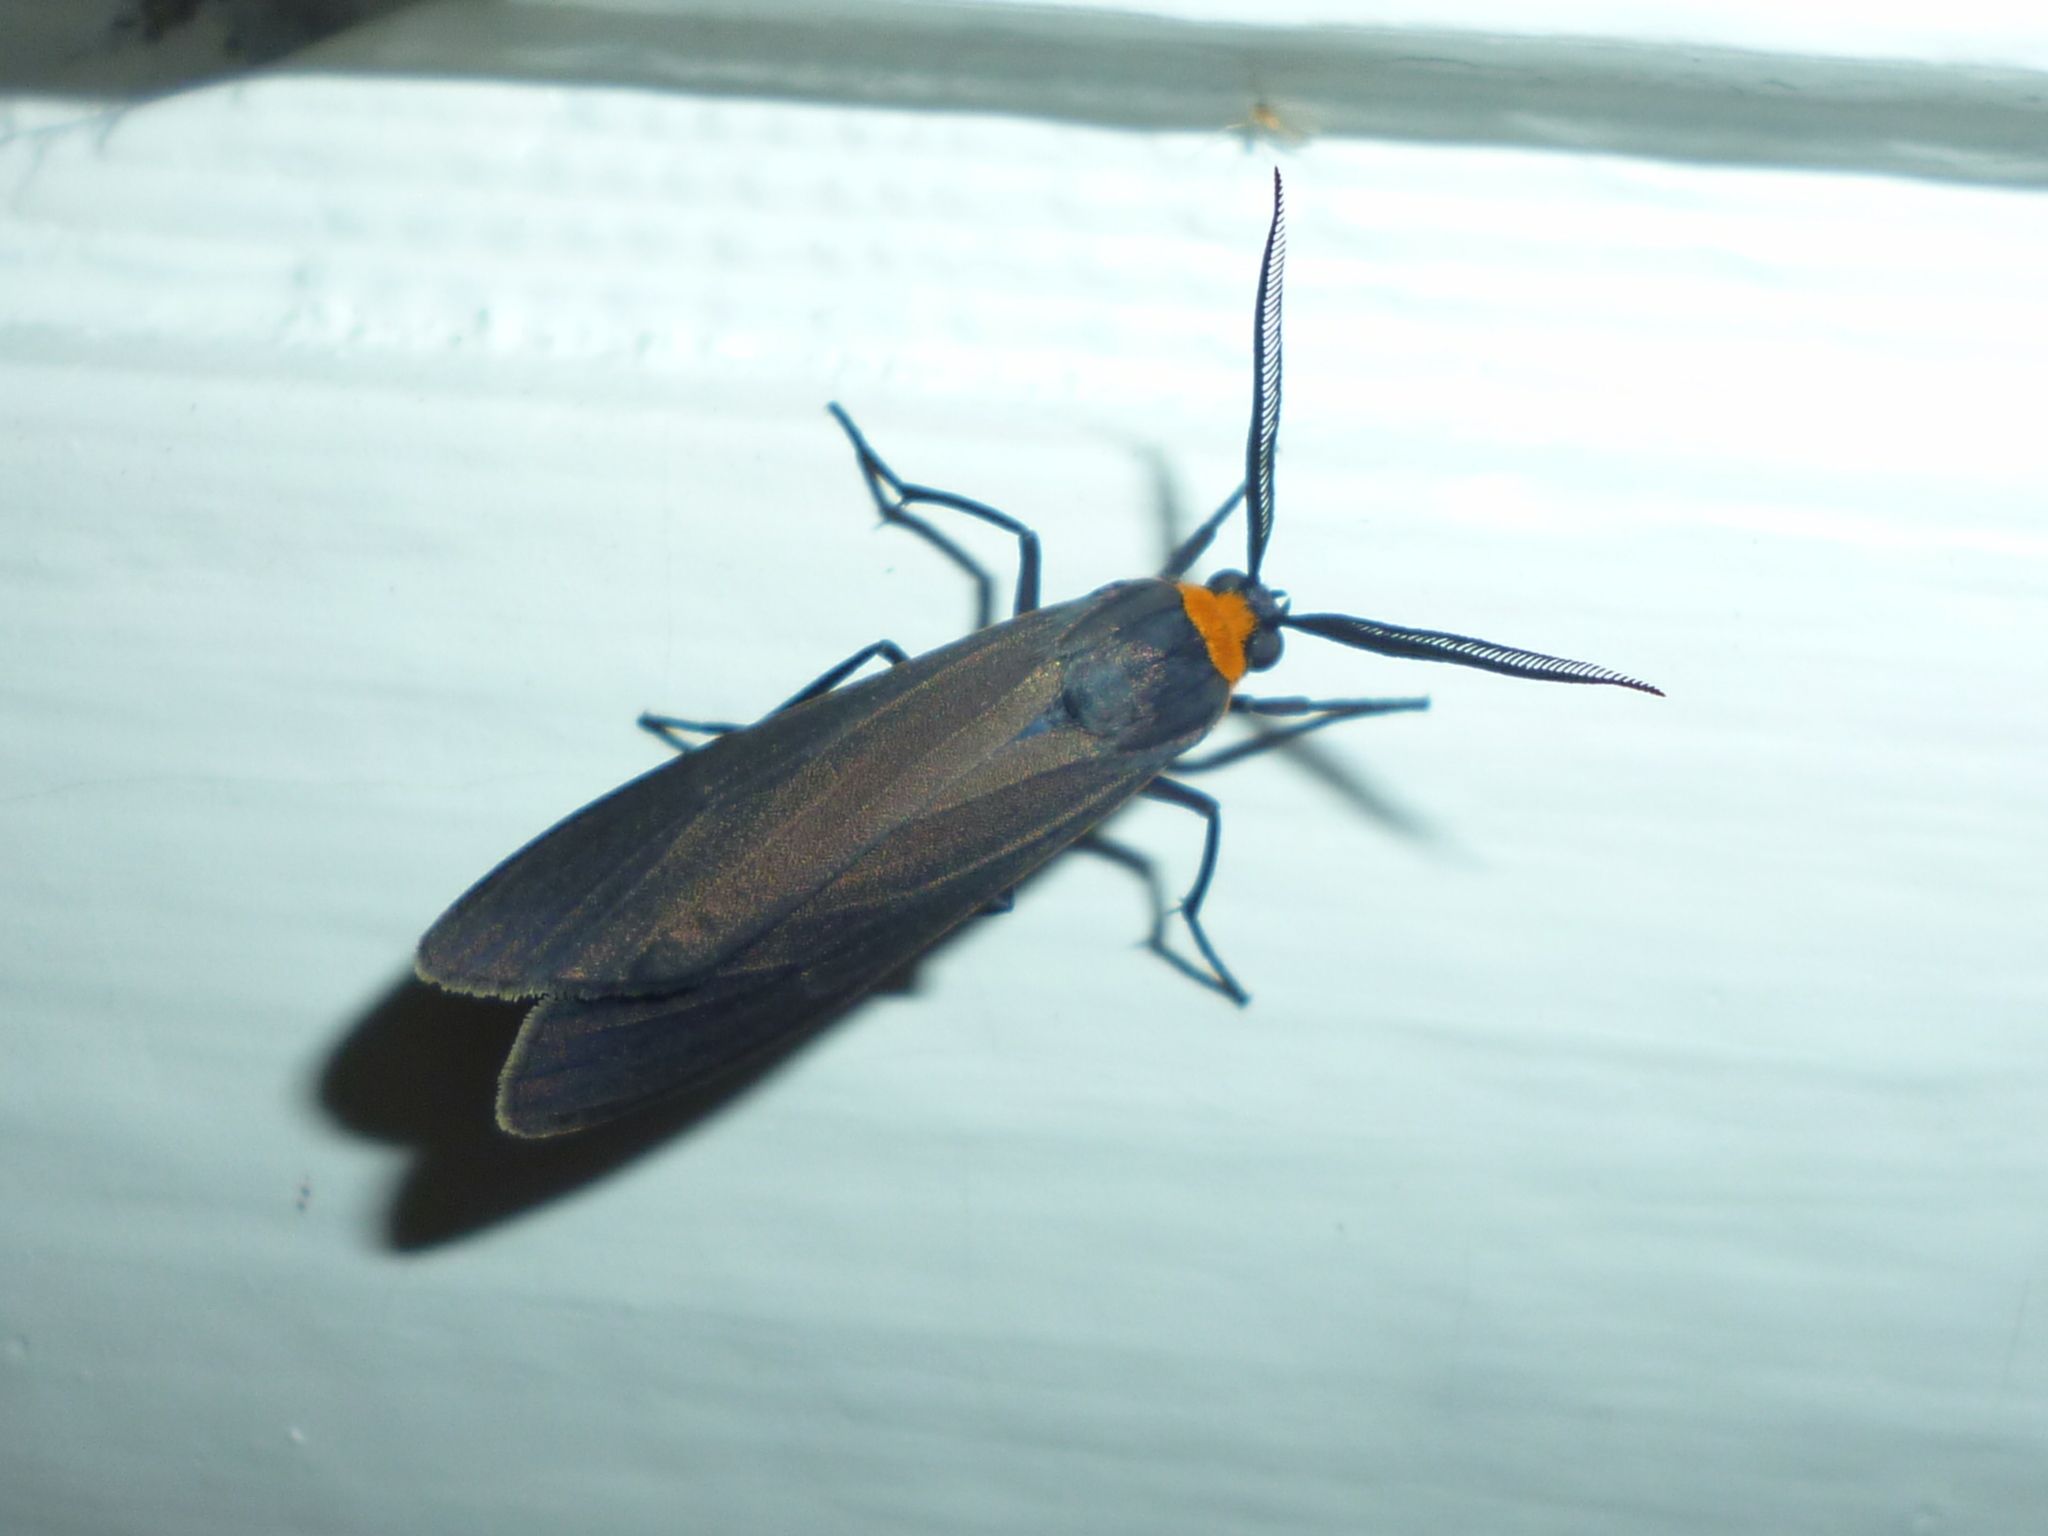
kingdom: Animalia
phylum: Arthropoda
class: Insecta
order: Lepidoptera
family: Erebidae
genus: Cisseps
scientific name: Cisseps fulvicollis
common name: Yellow-collared scape moth
